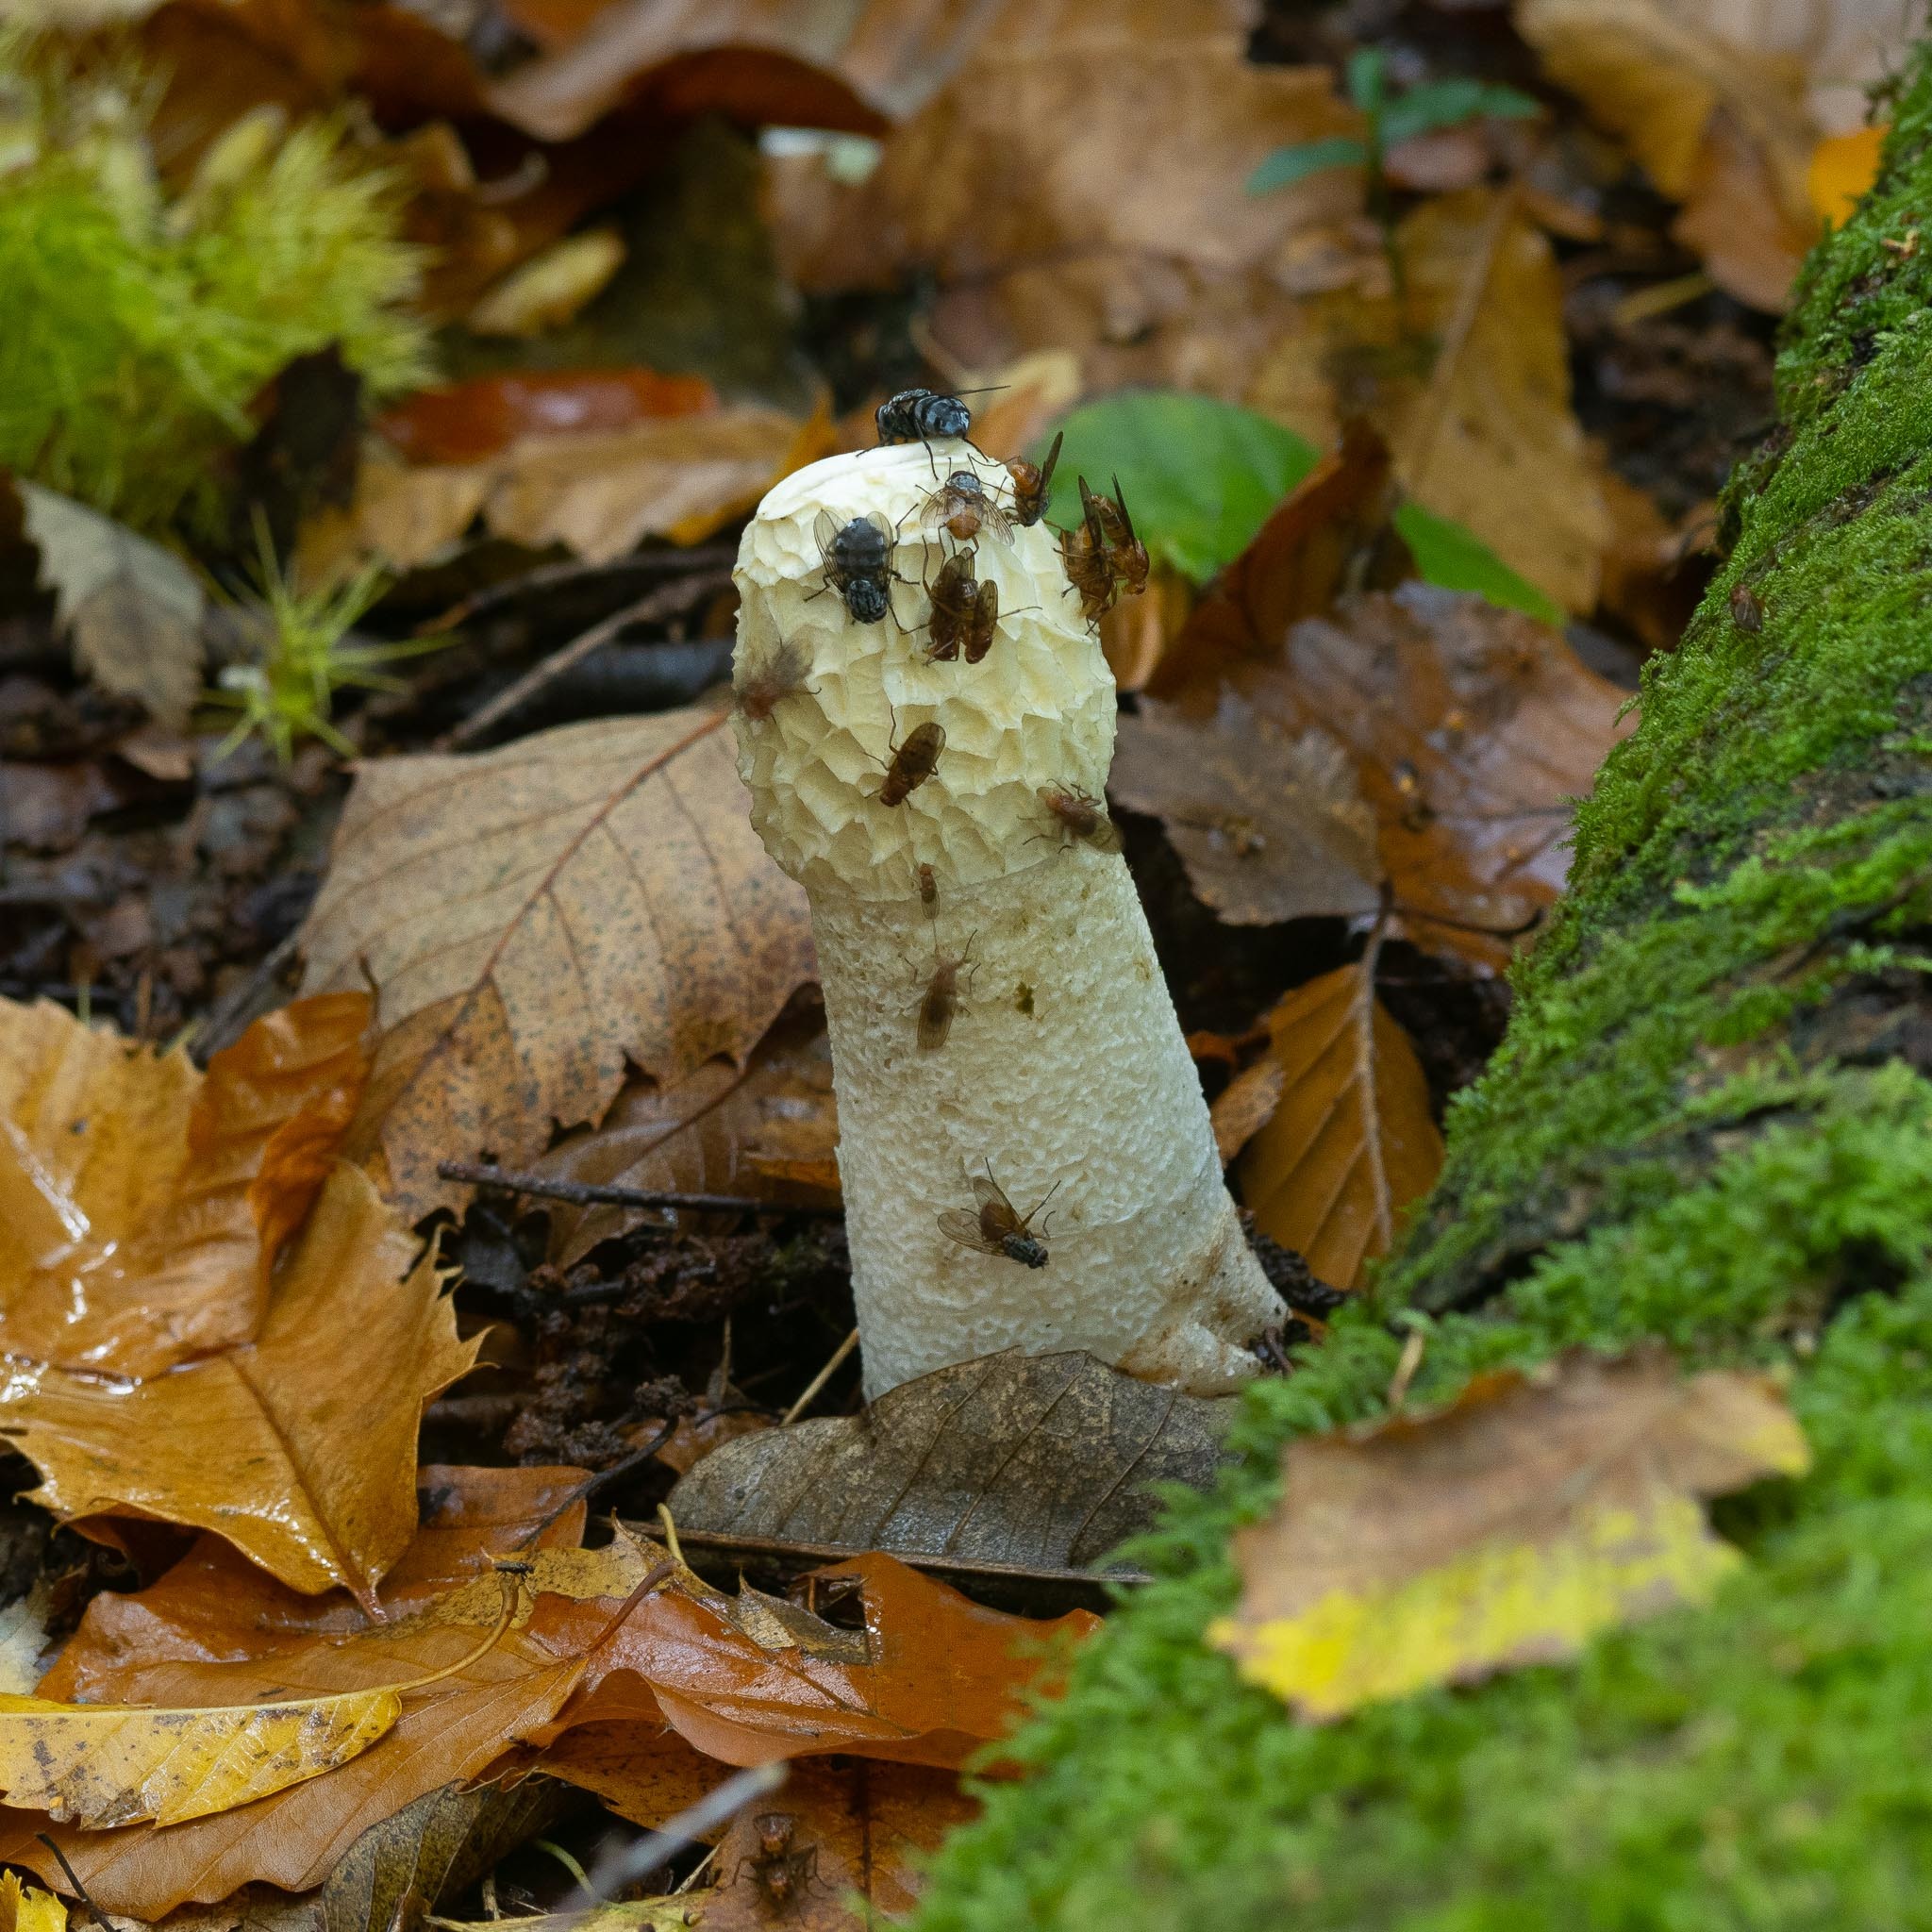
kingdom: Fungi
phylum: Basidiomycota
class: Agaricomycetes
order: Phallales
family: Phallaceae
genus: Phallus
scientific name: Phallus impudicus
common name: Common stinkhorn
